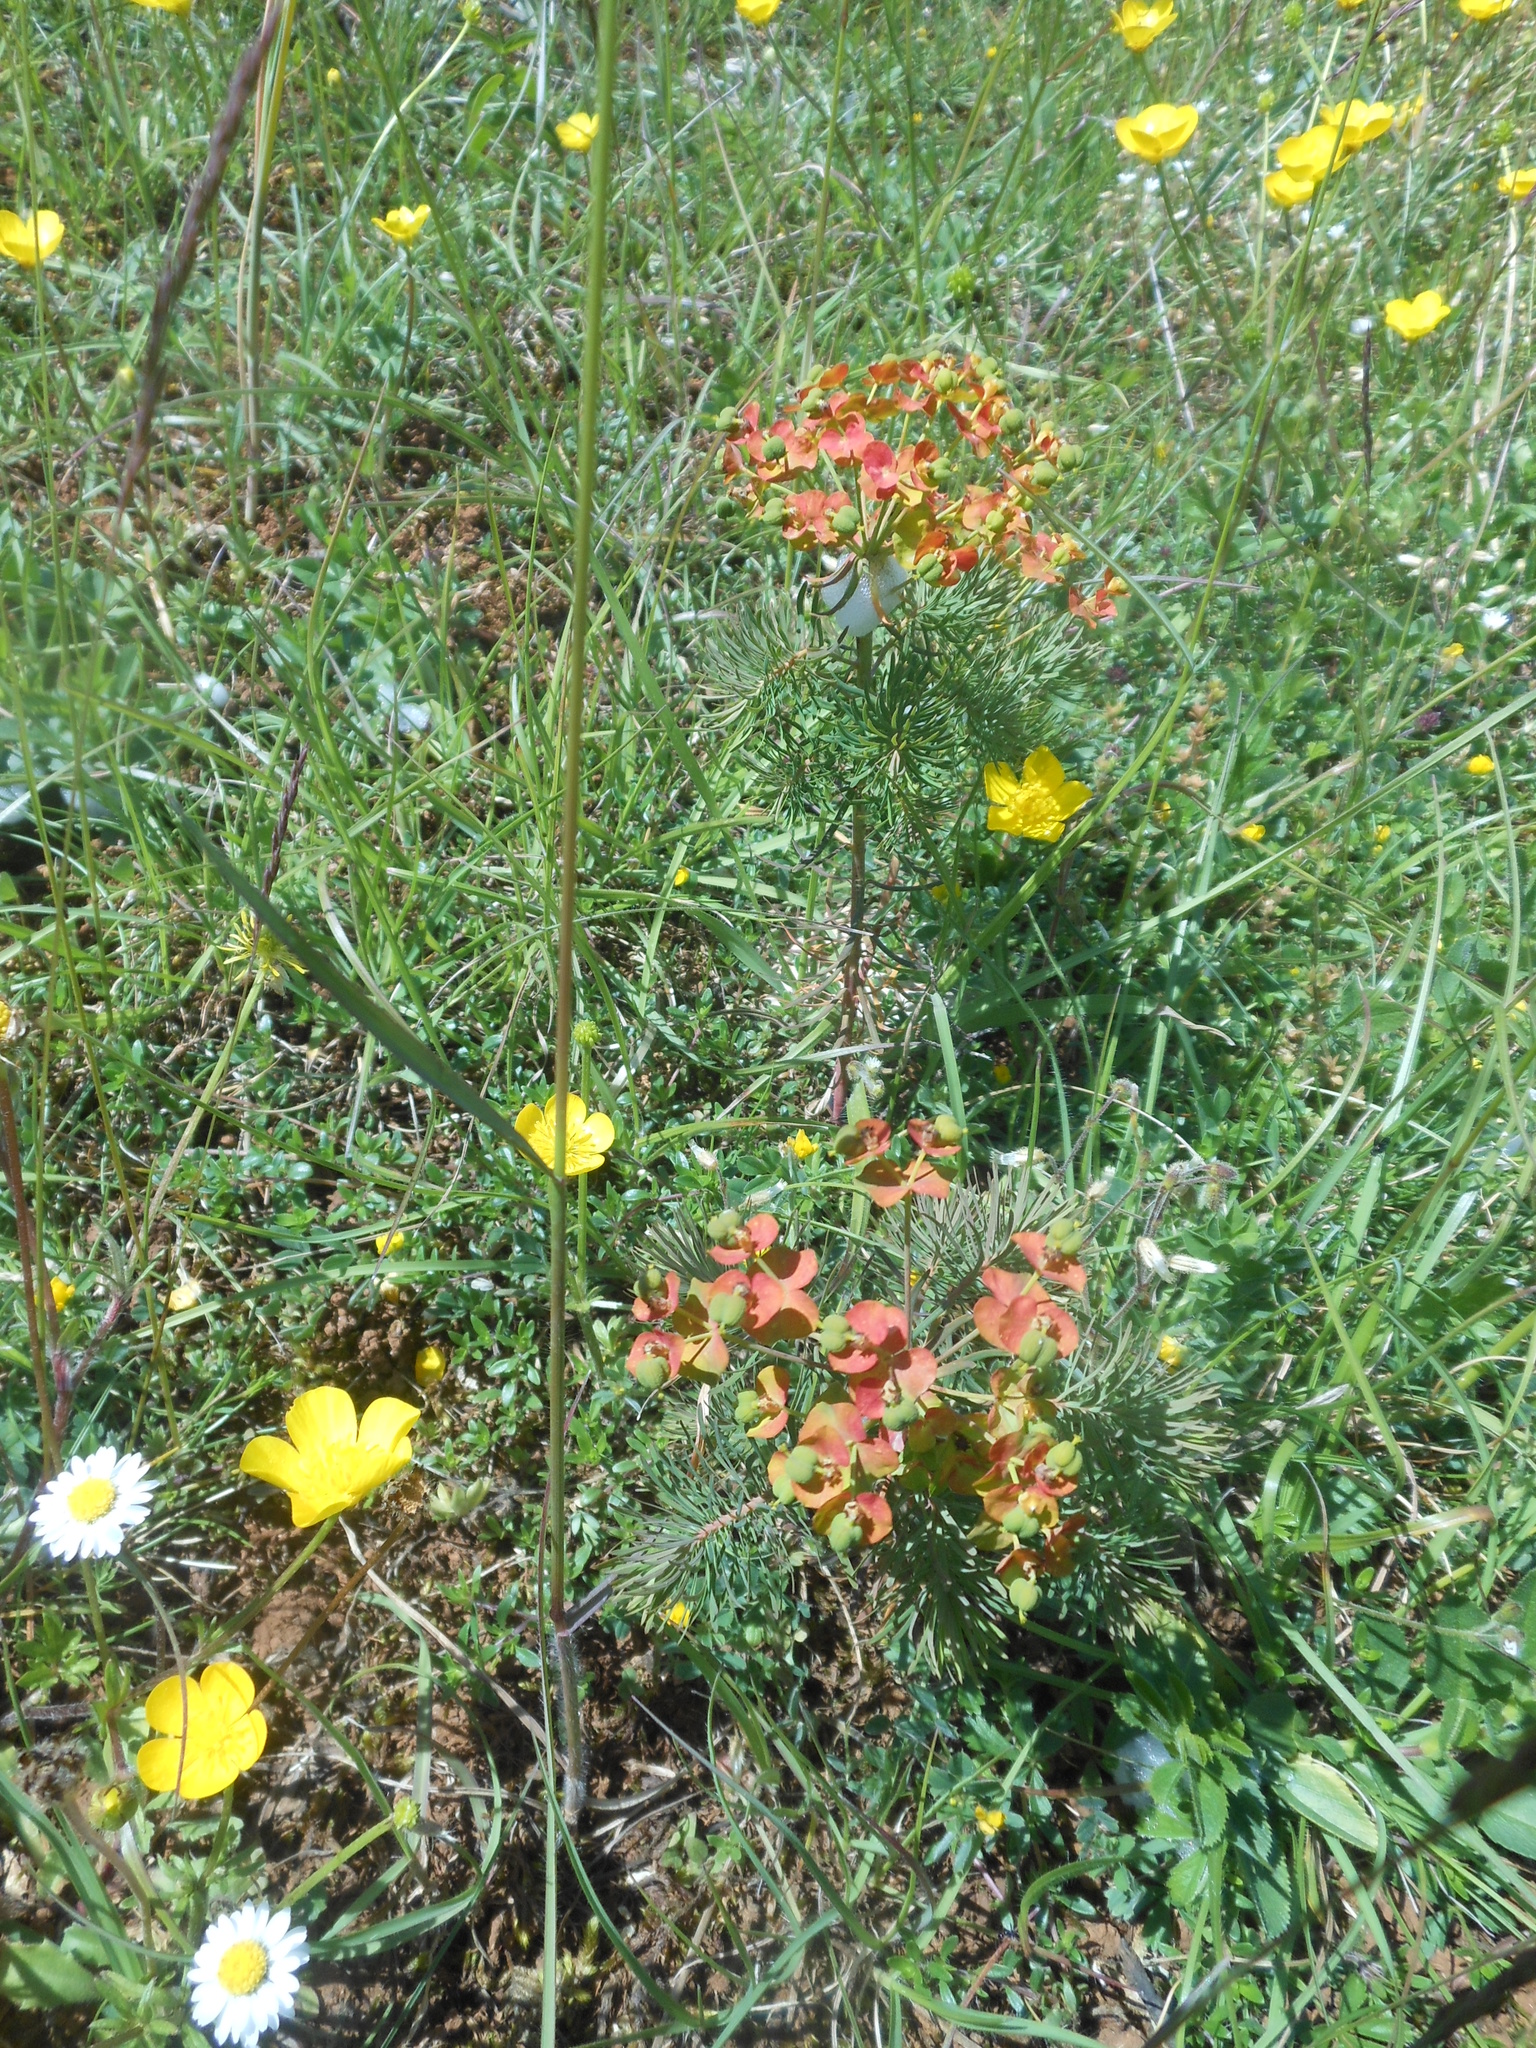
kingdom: Plantae
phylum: Tracheophyta
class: Magnoliopsida
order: Malpighiales
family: Euphorbiaceae
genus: Euphorbia
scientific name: Euphorbia cyparissias
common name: Cypress spurge
